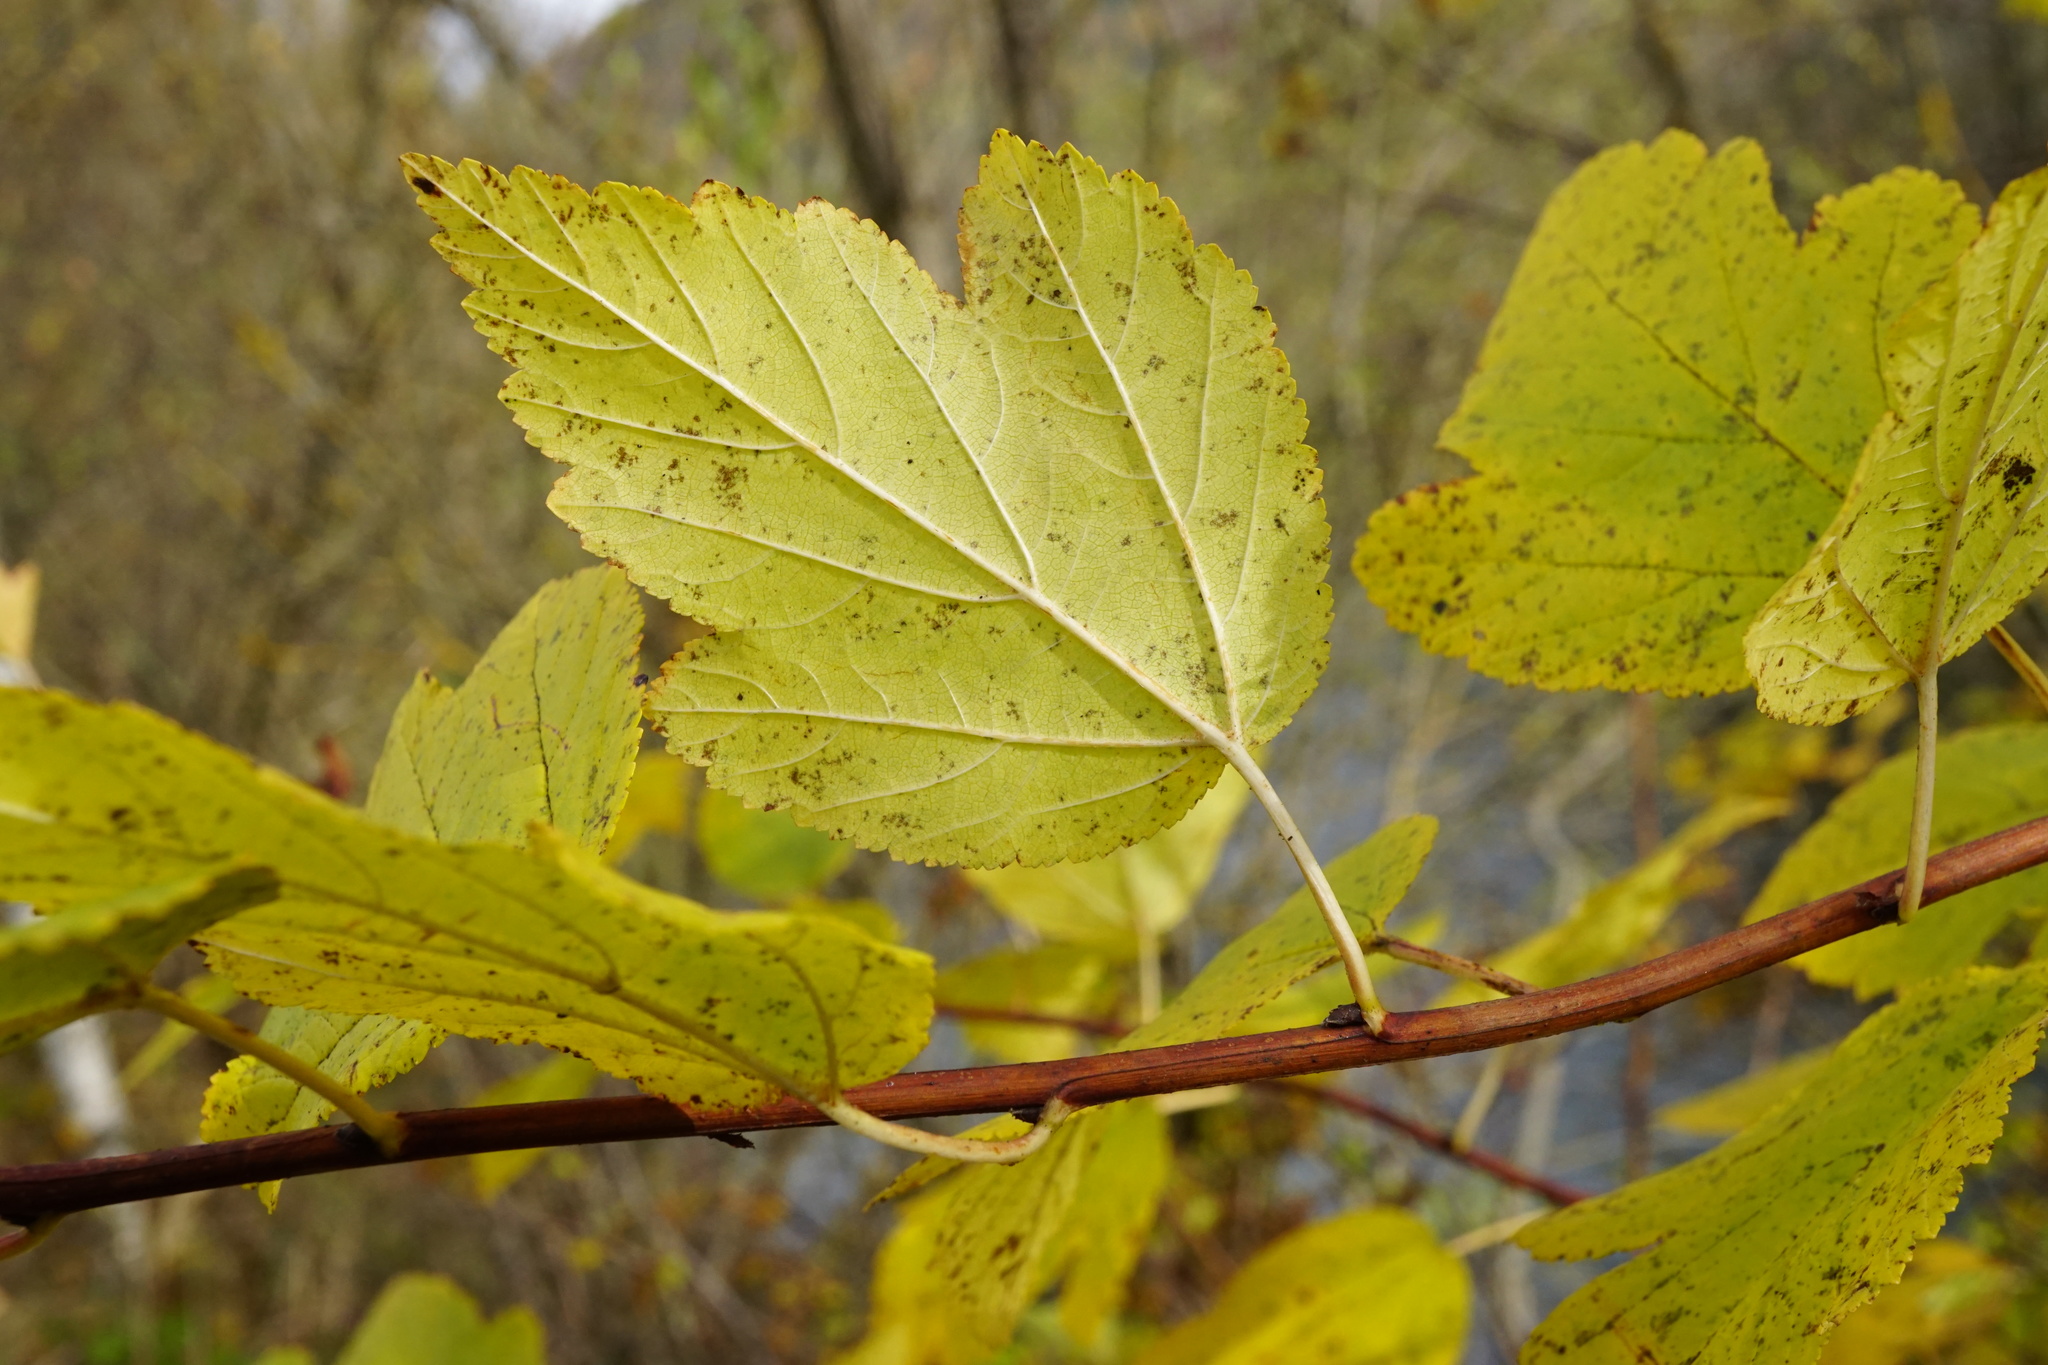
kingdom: Plantae
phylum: Tracheophyta
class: Magnoliopsida
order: Rosales
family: Rosaceae
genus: Physocarpus
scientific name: Physocarpus opulifolius
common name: Ninebark
